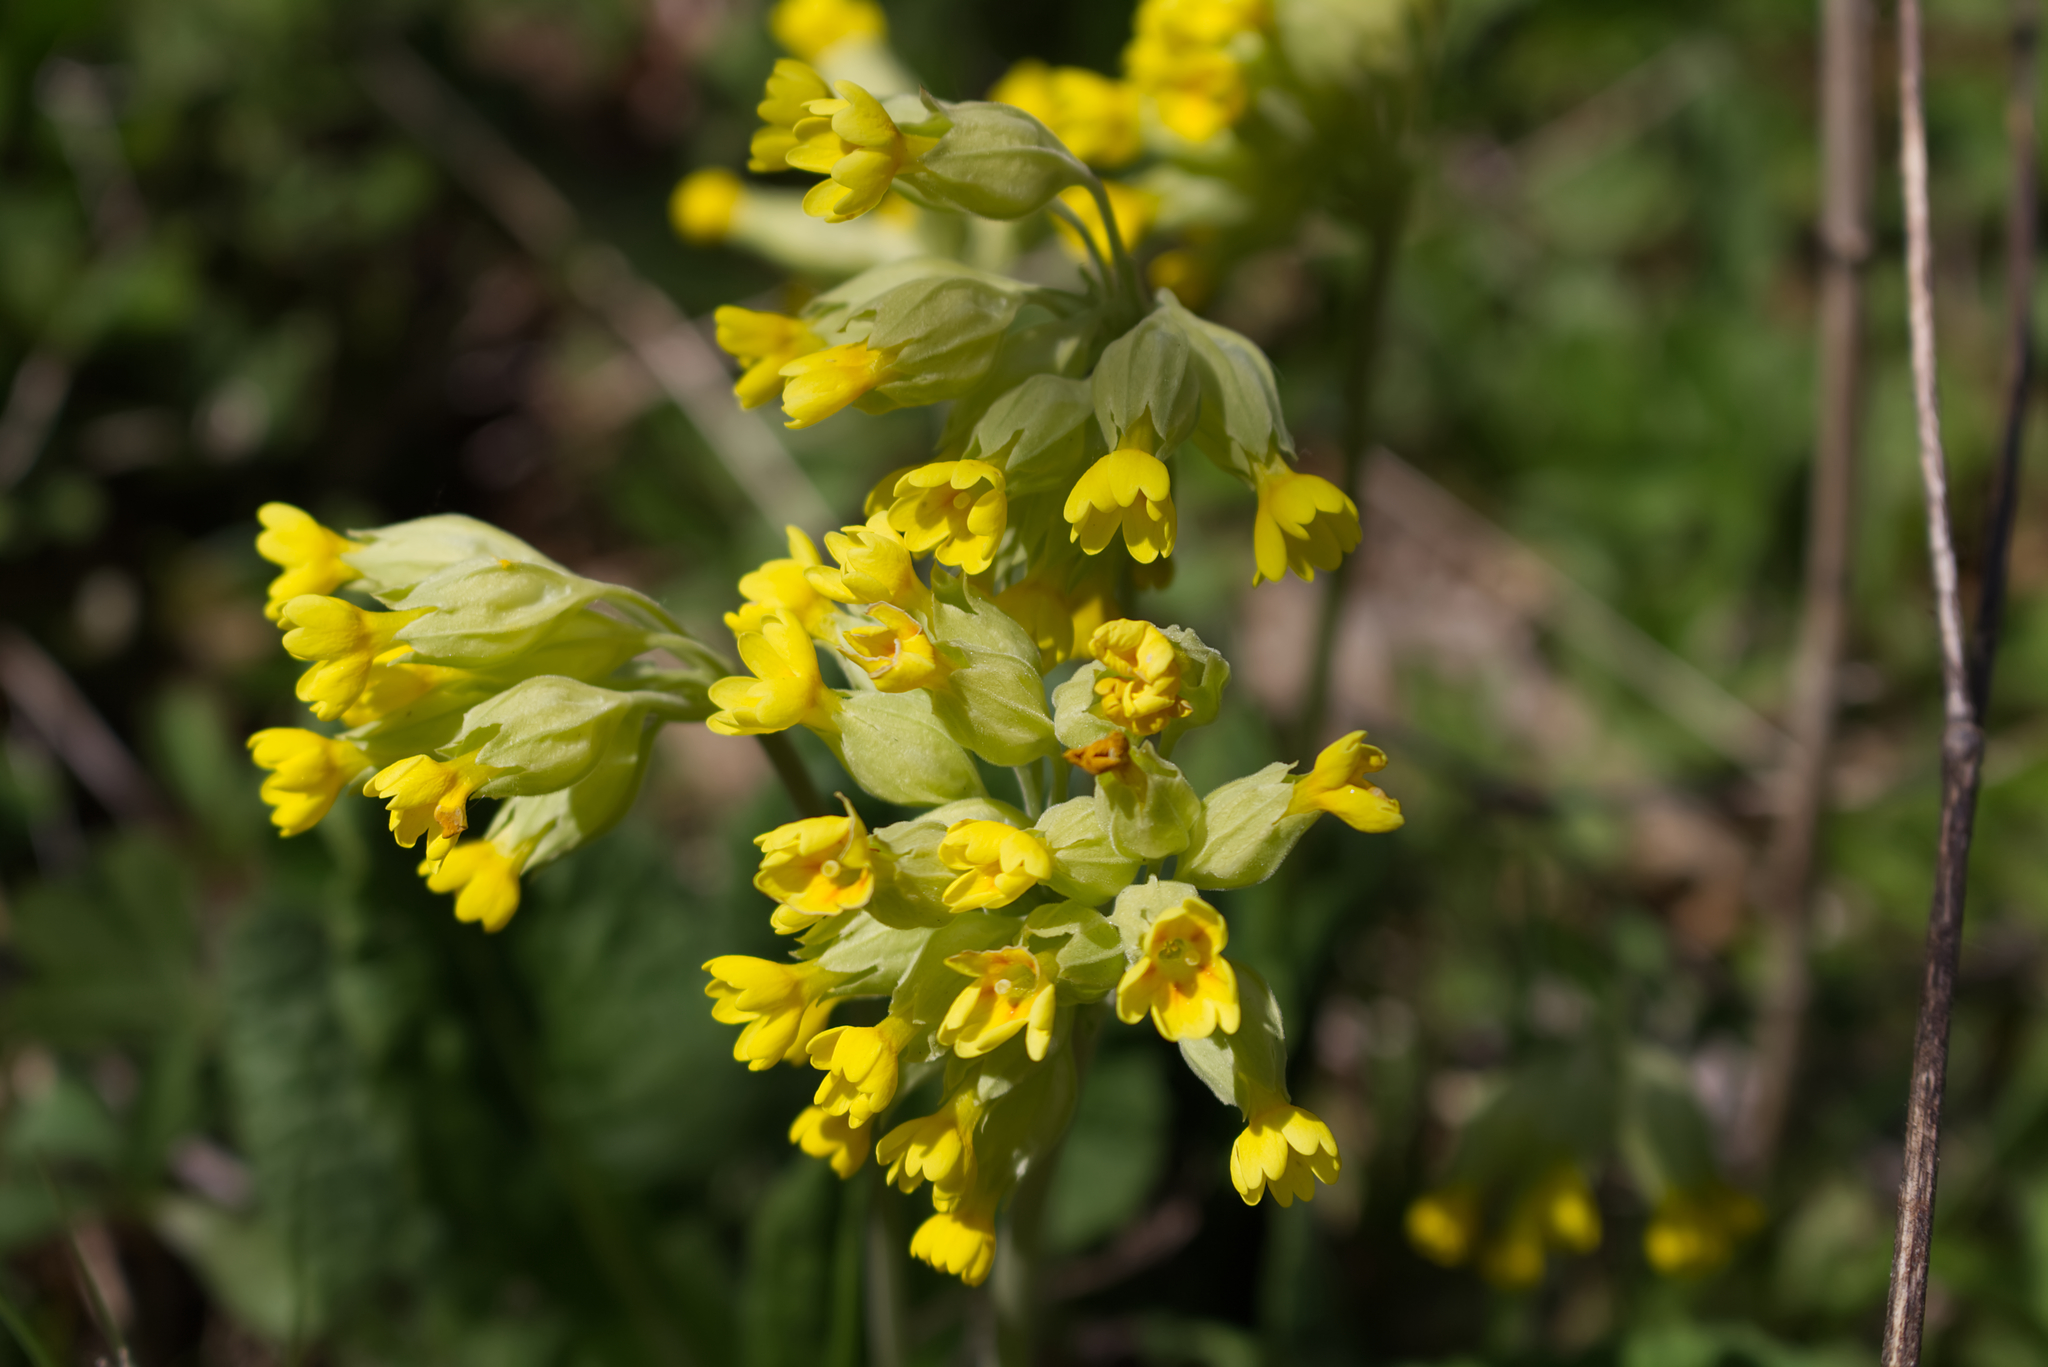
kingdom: Plantae
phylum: Tracheophyta
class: Magnoliopsida
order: Ericales
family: Primulaceae
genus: Primula
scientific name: Primula veris
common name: Cowslip
